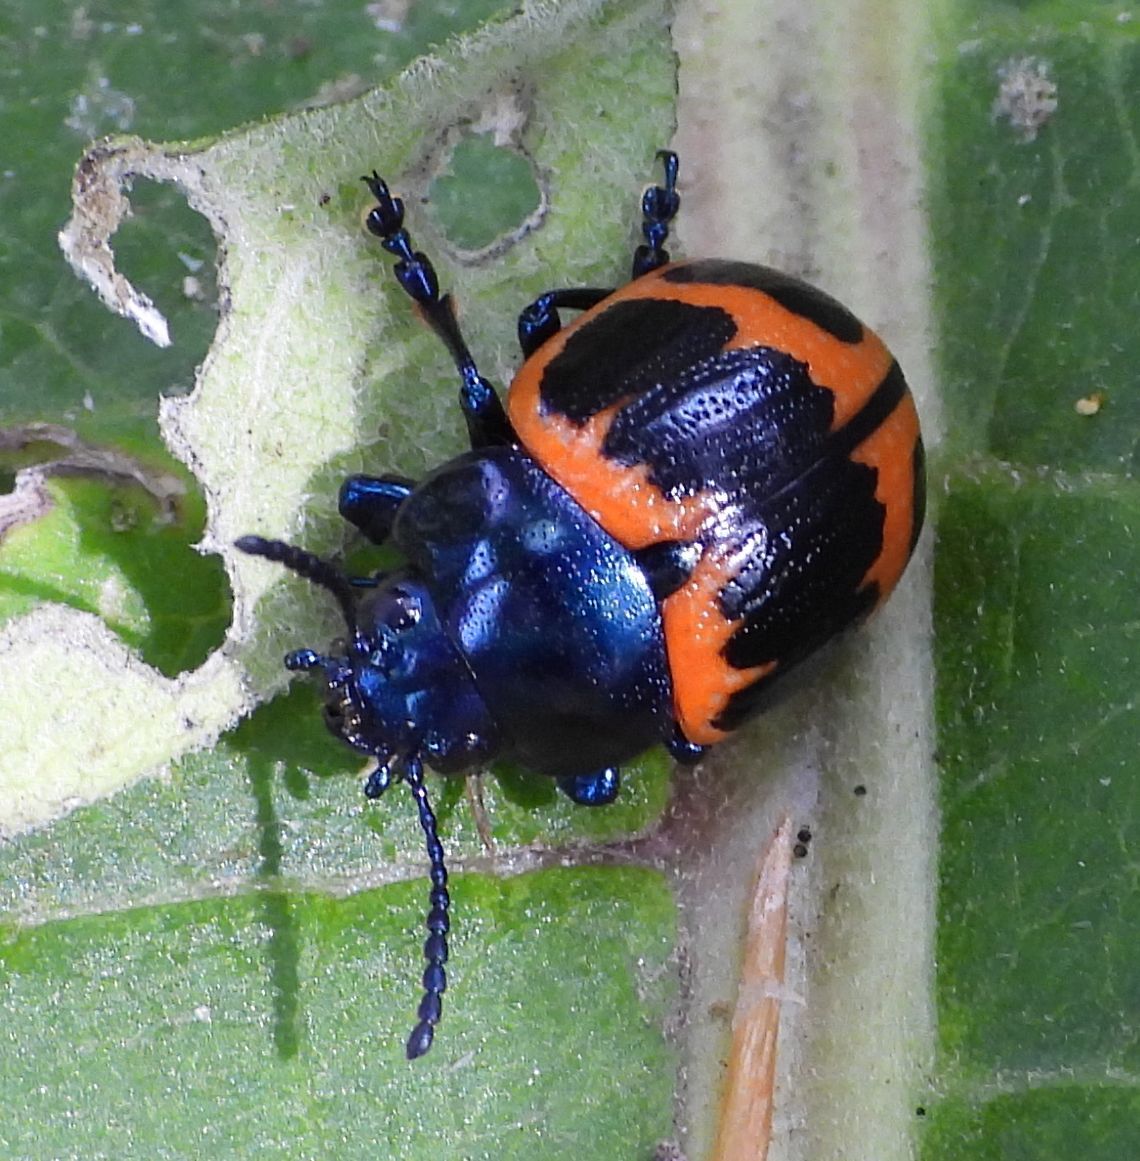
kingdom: Animalia
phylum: Arthropoda
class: Insecta
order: Coleoptera
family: Chrysomelidae
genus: Labidomera
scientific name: Labidomera clivicollis
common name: Swamp milkweed leaf beetle
